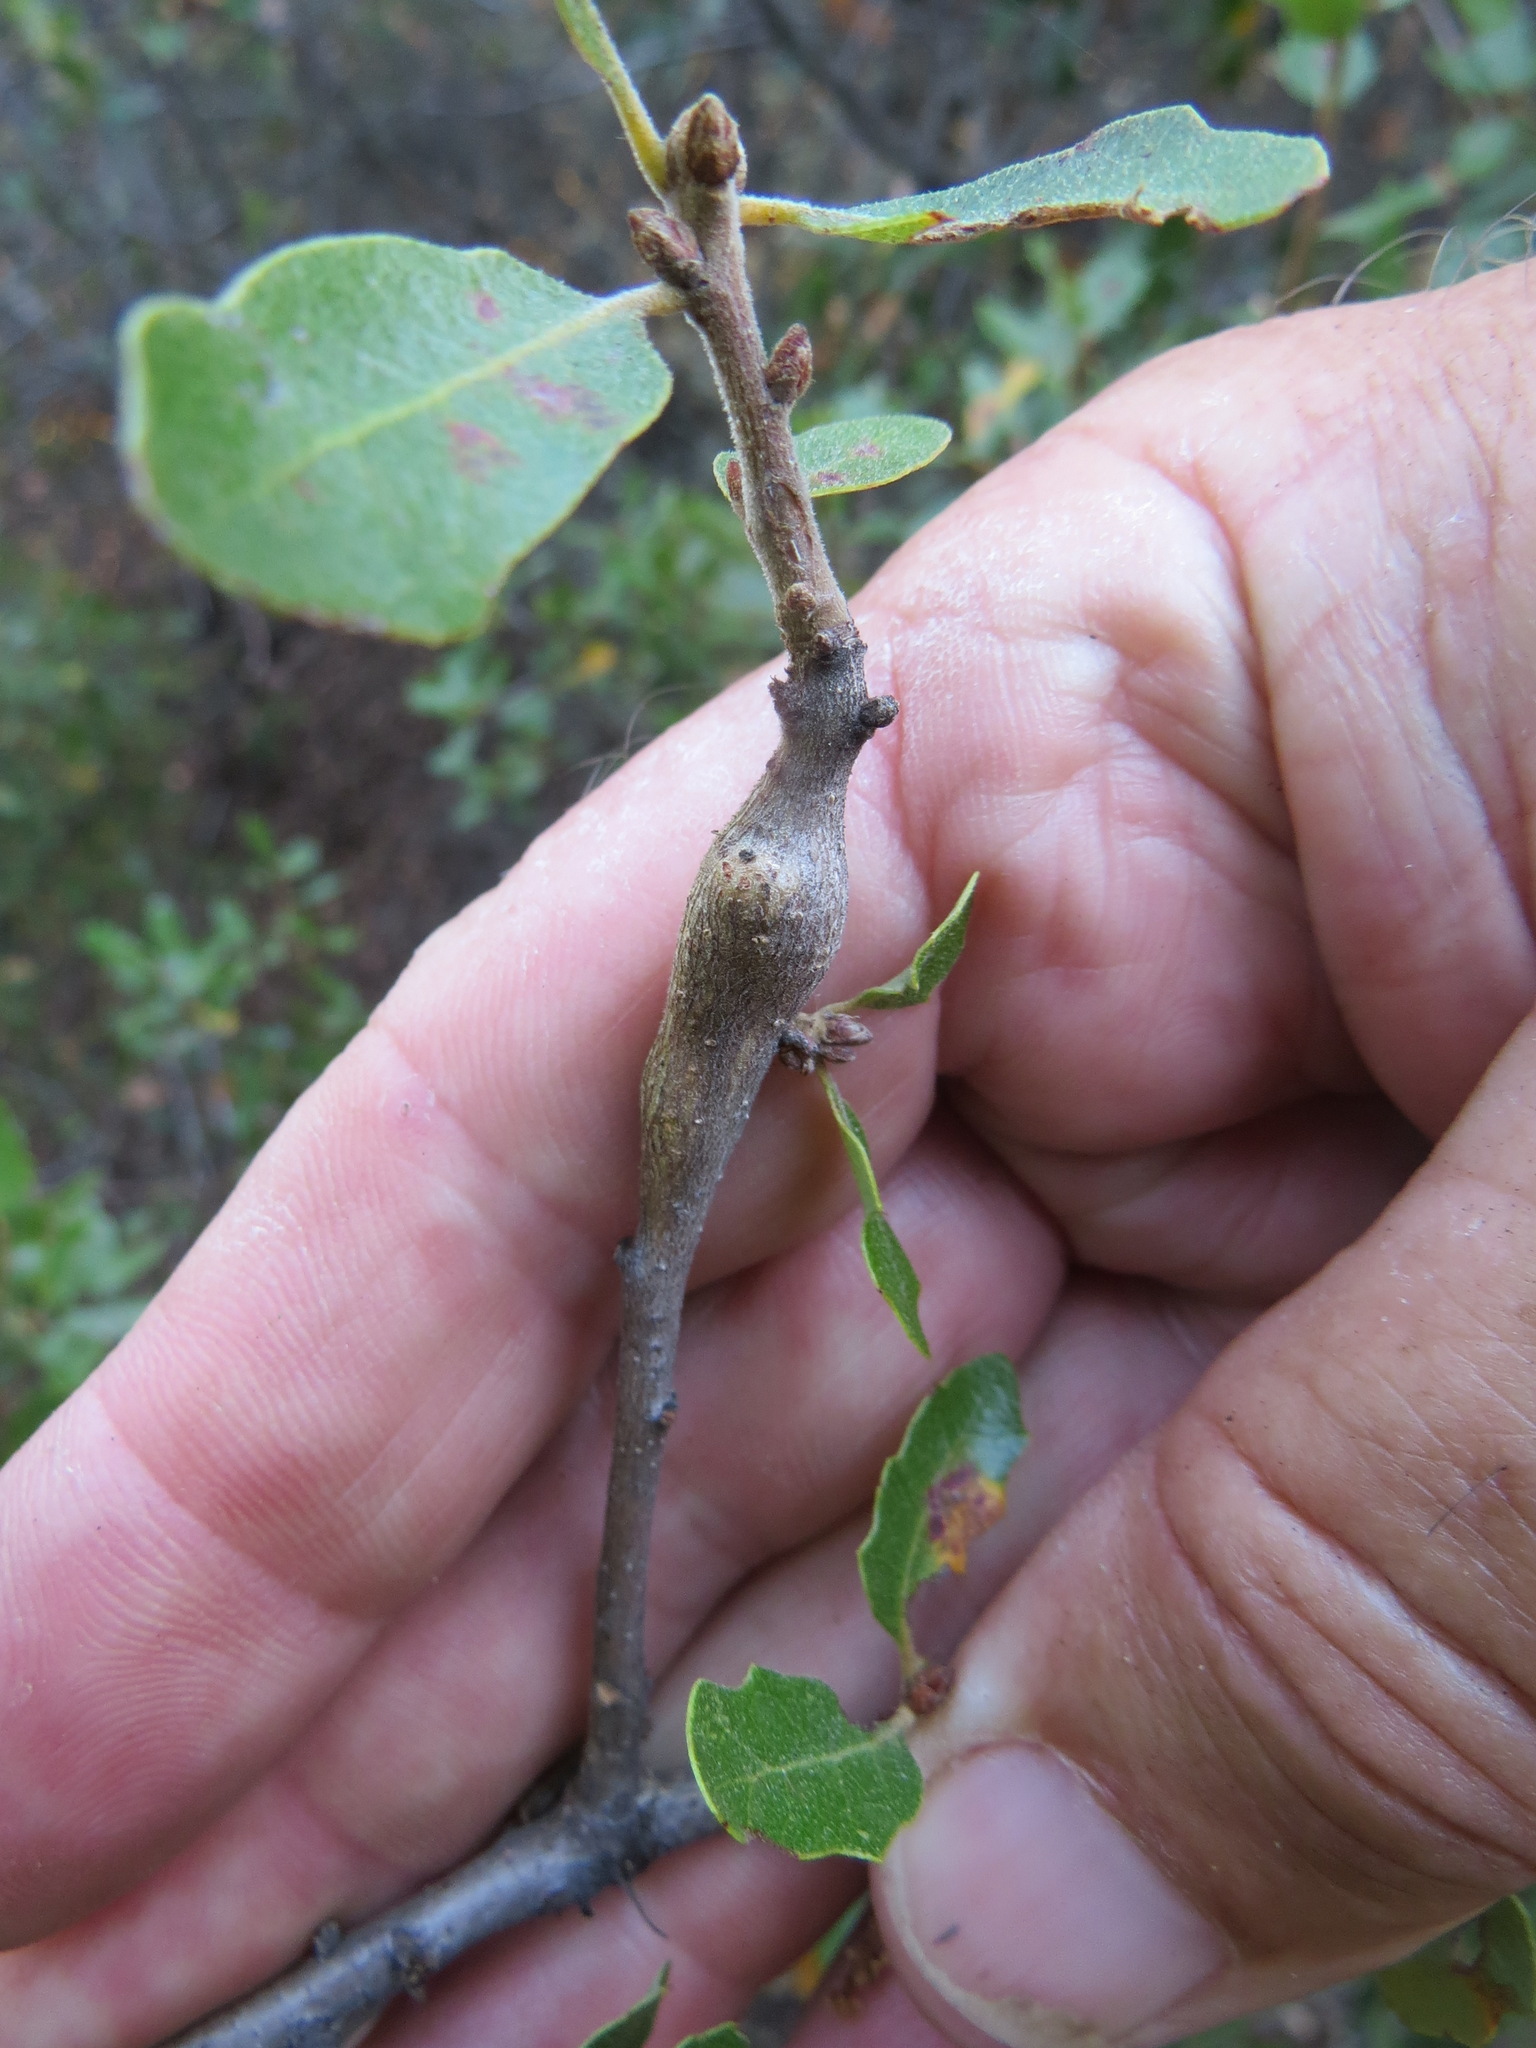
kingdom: Animalia
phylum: Arthropoda
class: Insecta
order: Hymenoptera
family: Cynipidae
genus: Andricus
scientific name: Andricus
